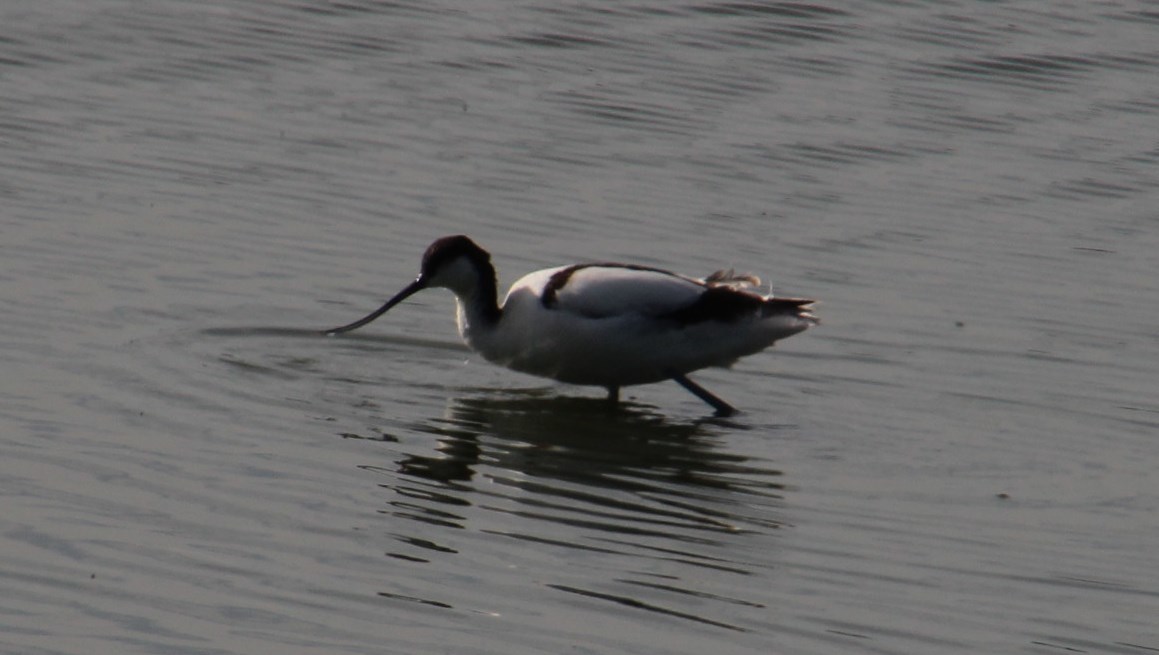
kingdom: Animalia
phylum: Chordata
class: Aves
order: Charadriiformes
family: Recurvirostridae
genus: Recurvirostra
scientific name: Recurvirostra avosetta
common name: Pied avocet
